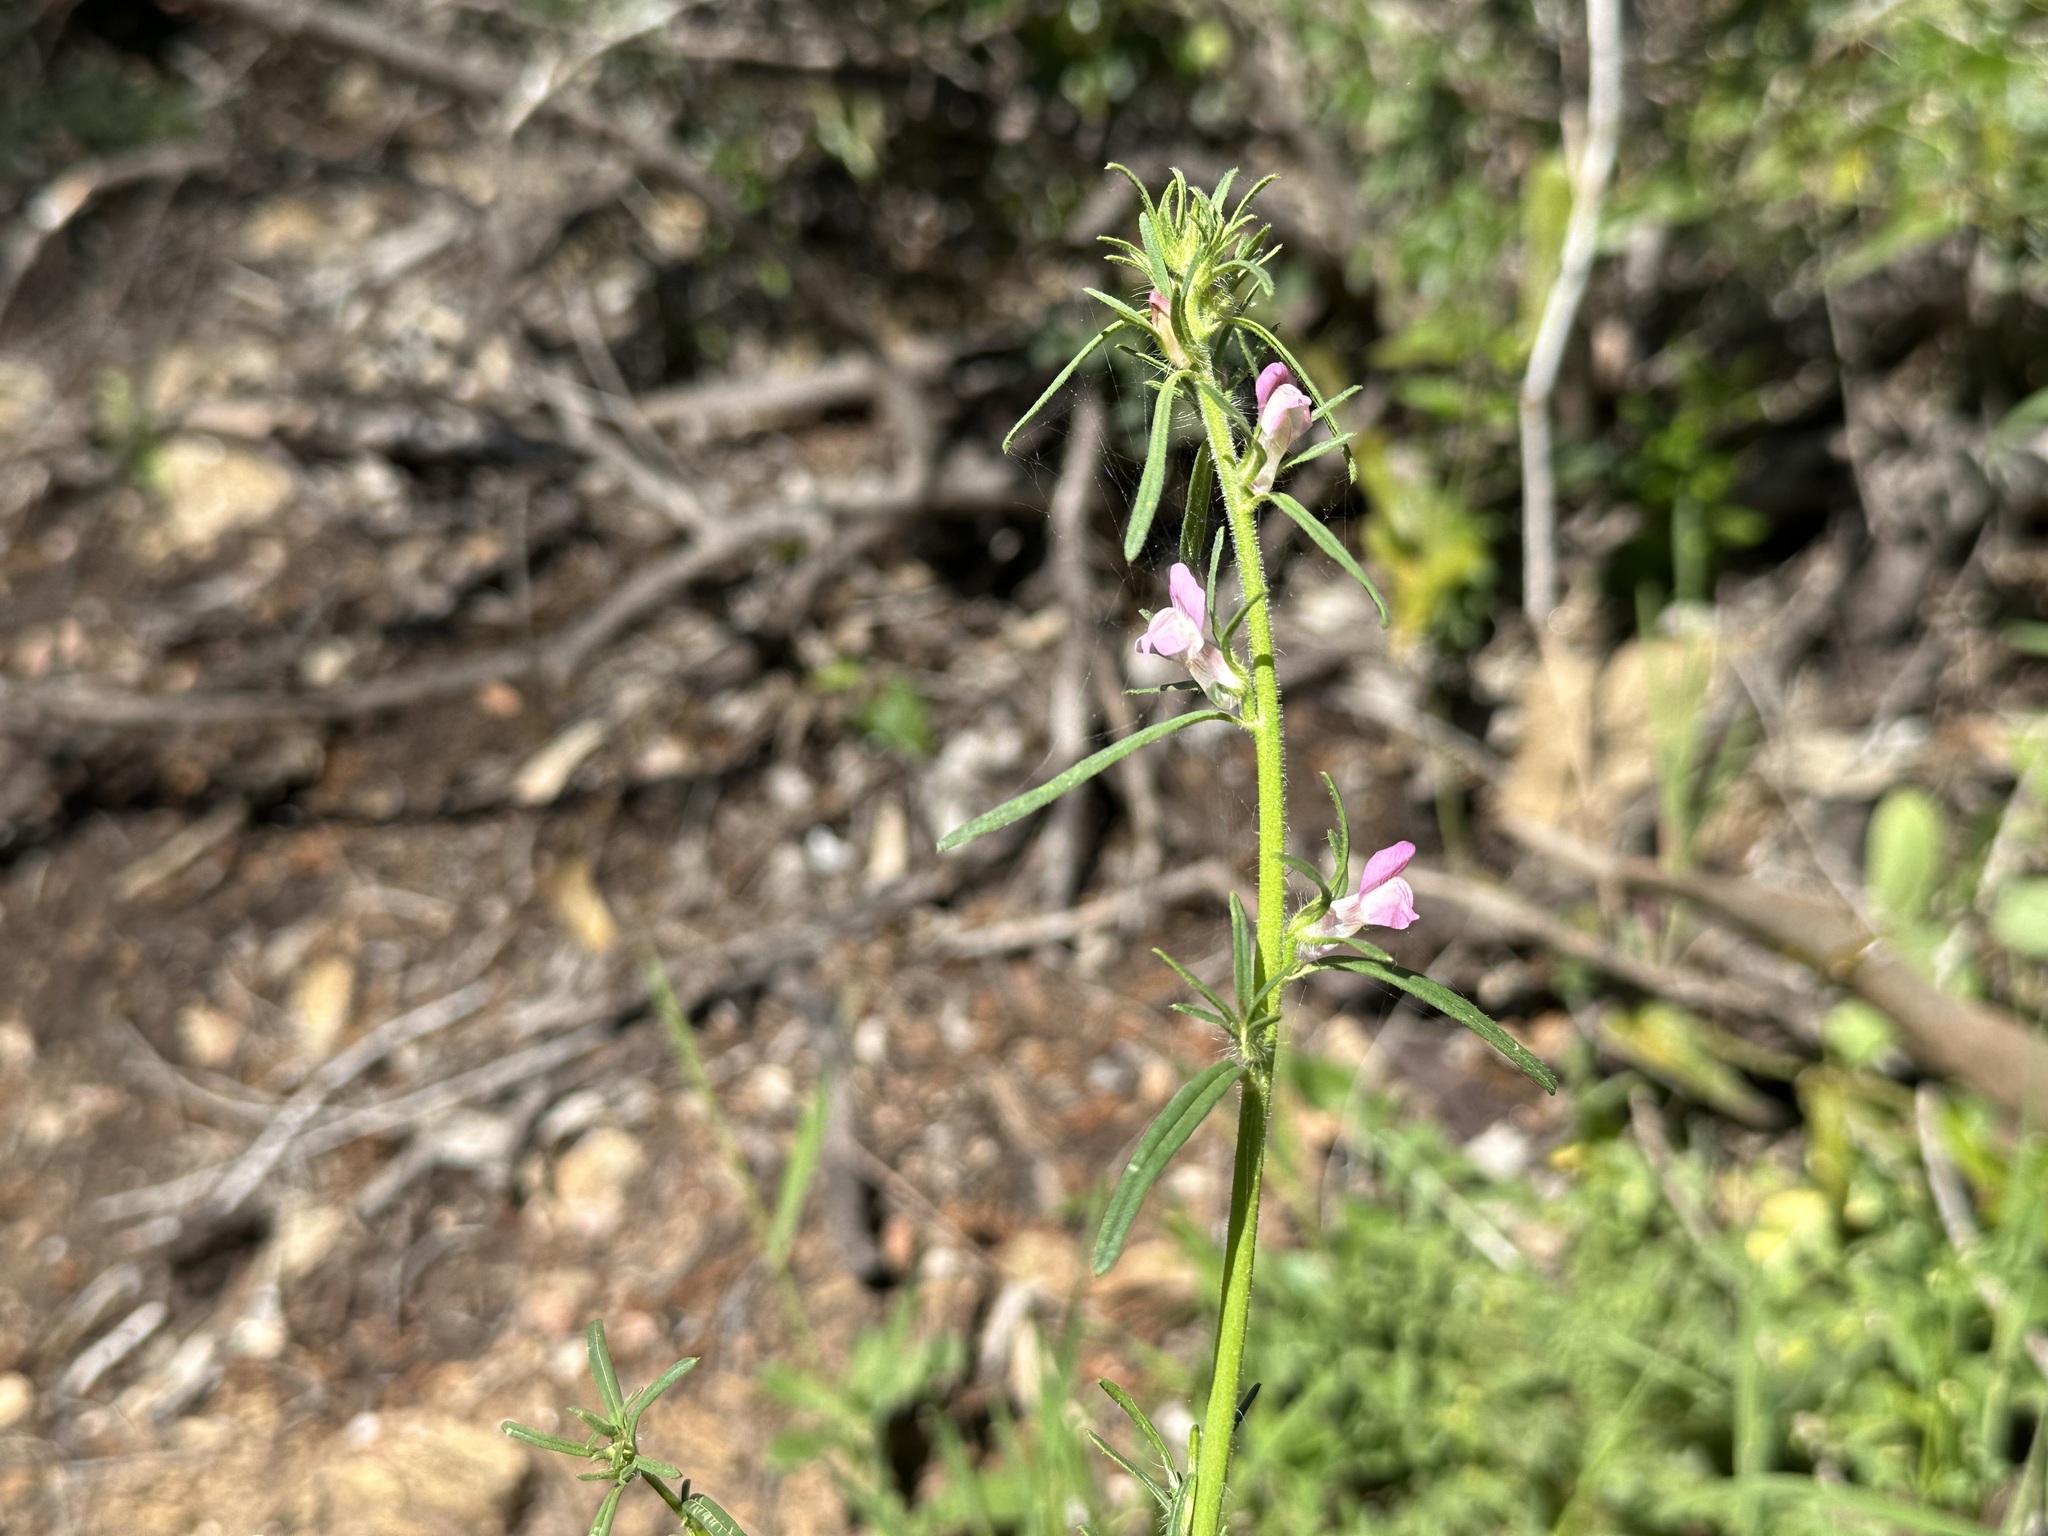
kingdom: Plantae
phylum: Tracheophyta
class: Magnoliopsida
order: Lamiales
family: Plantaginaceae
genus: Misopates
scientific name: Misopates orontium
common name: Weasel's-snout
